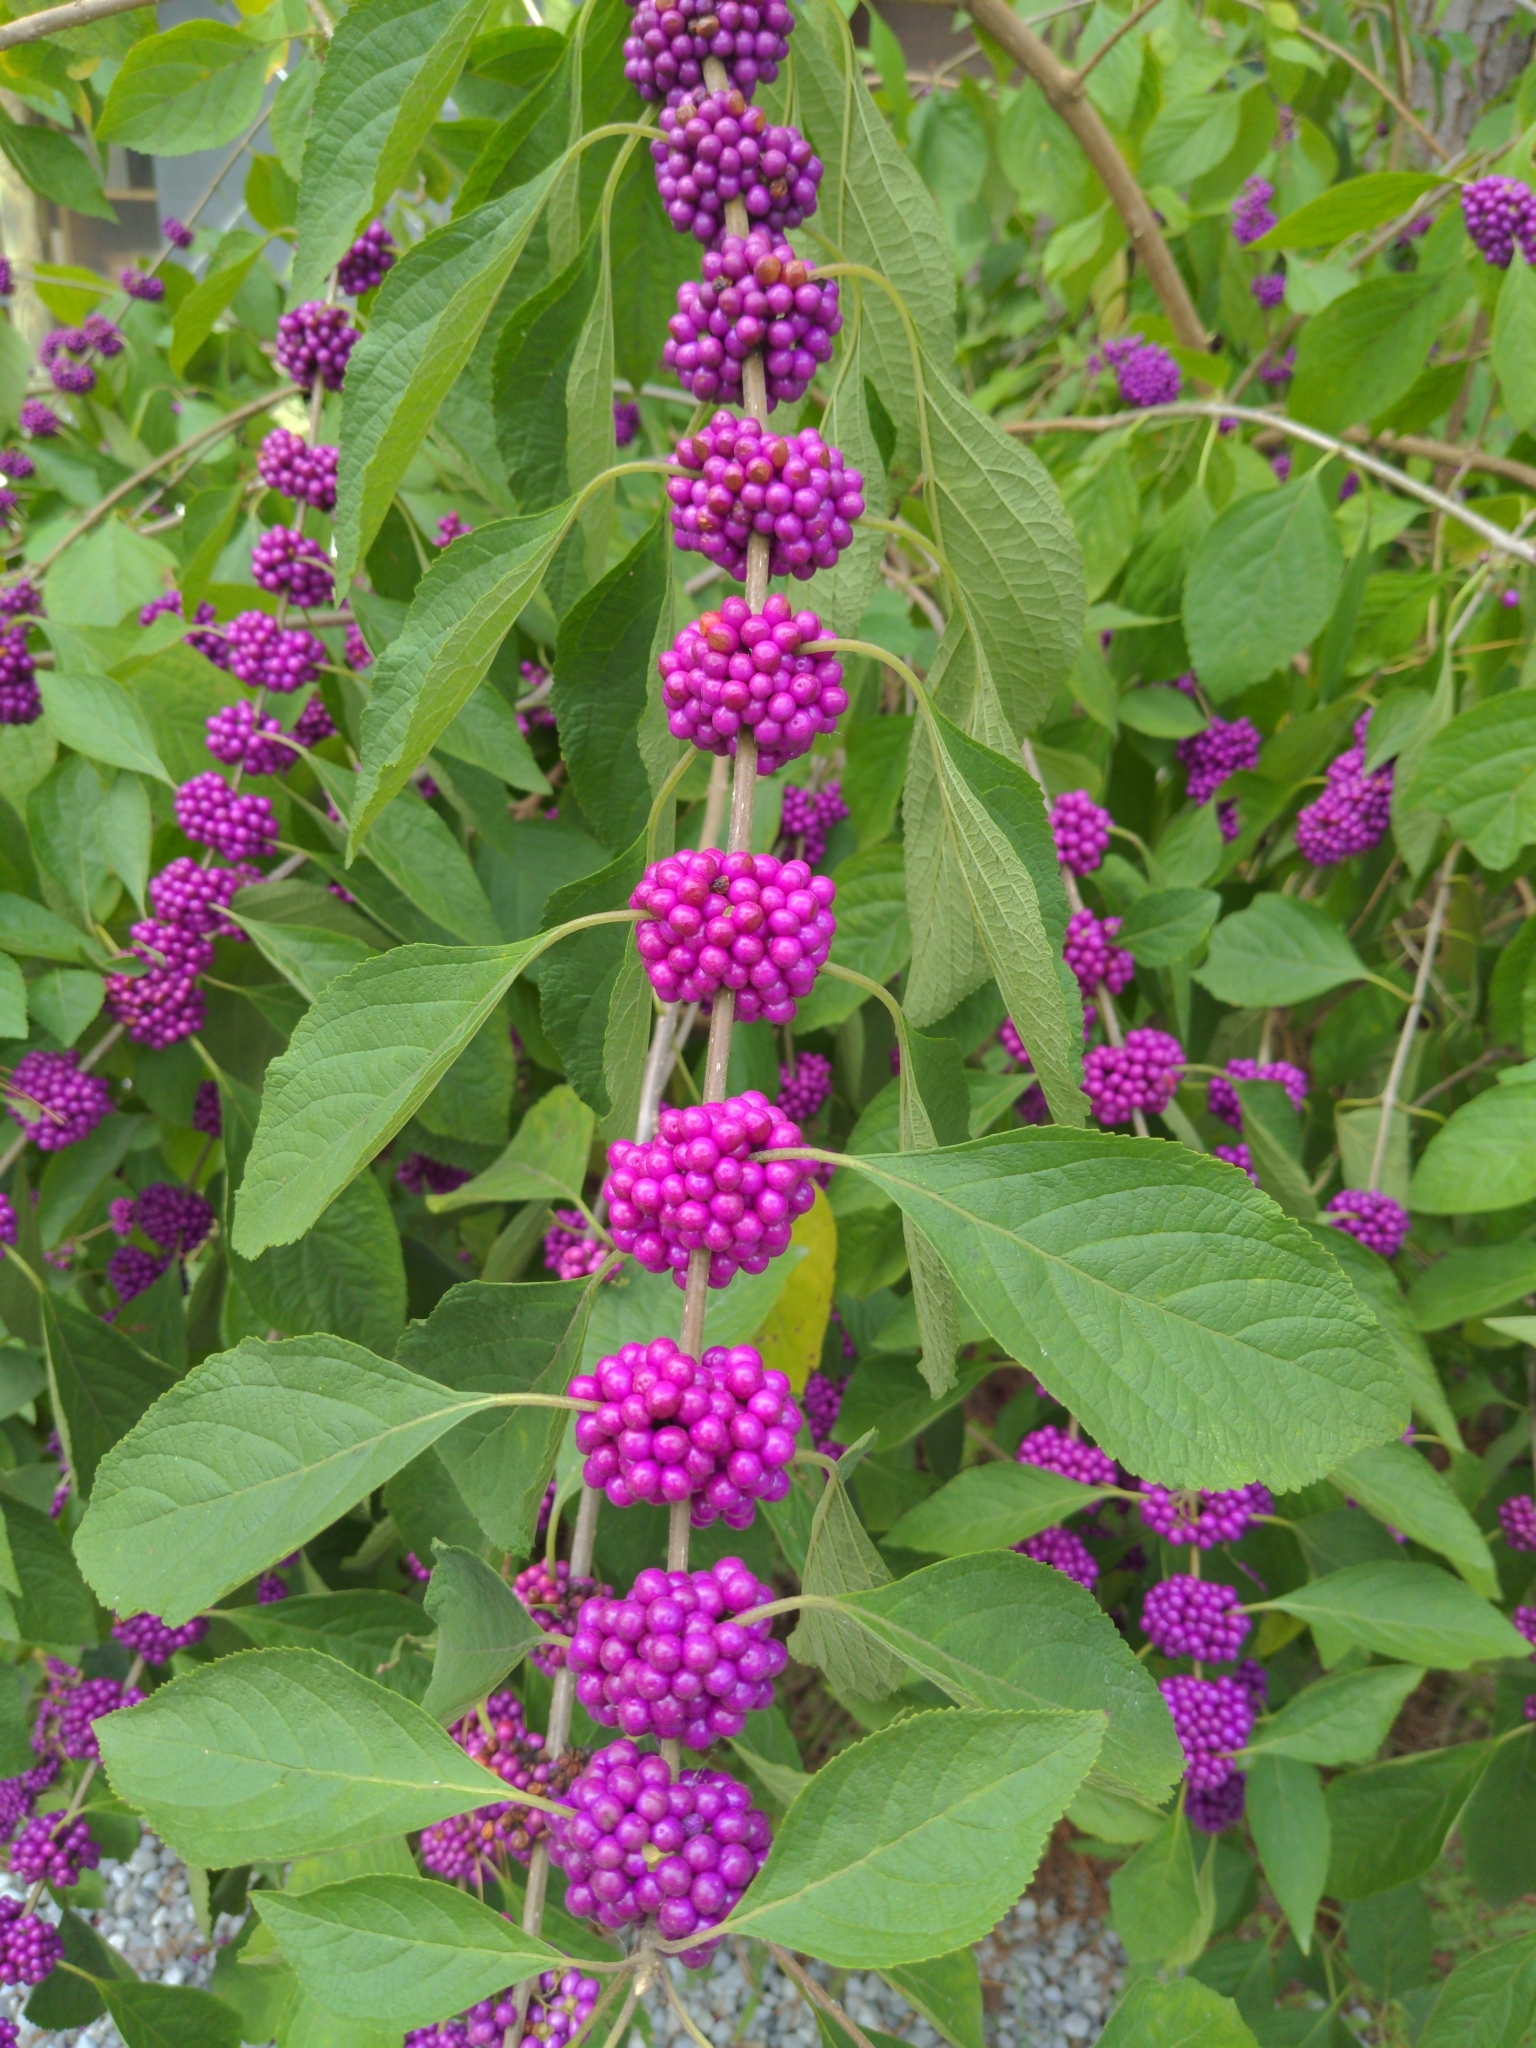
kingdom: Plantae
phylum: Tracheophyta
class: Magnoliopsida
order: Lamiales
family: Lamiaceae
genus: Callicarpa
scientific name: Callicarpa americana
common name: American beautyberry
